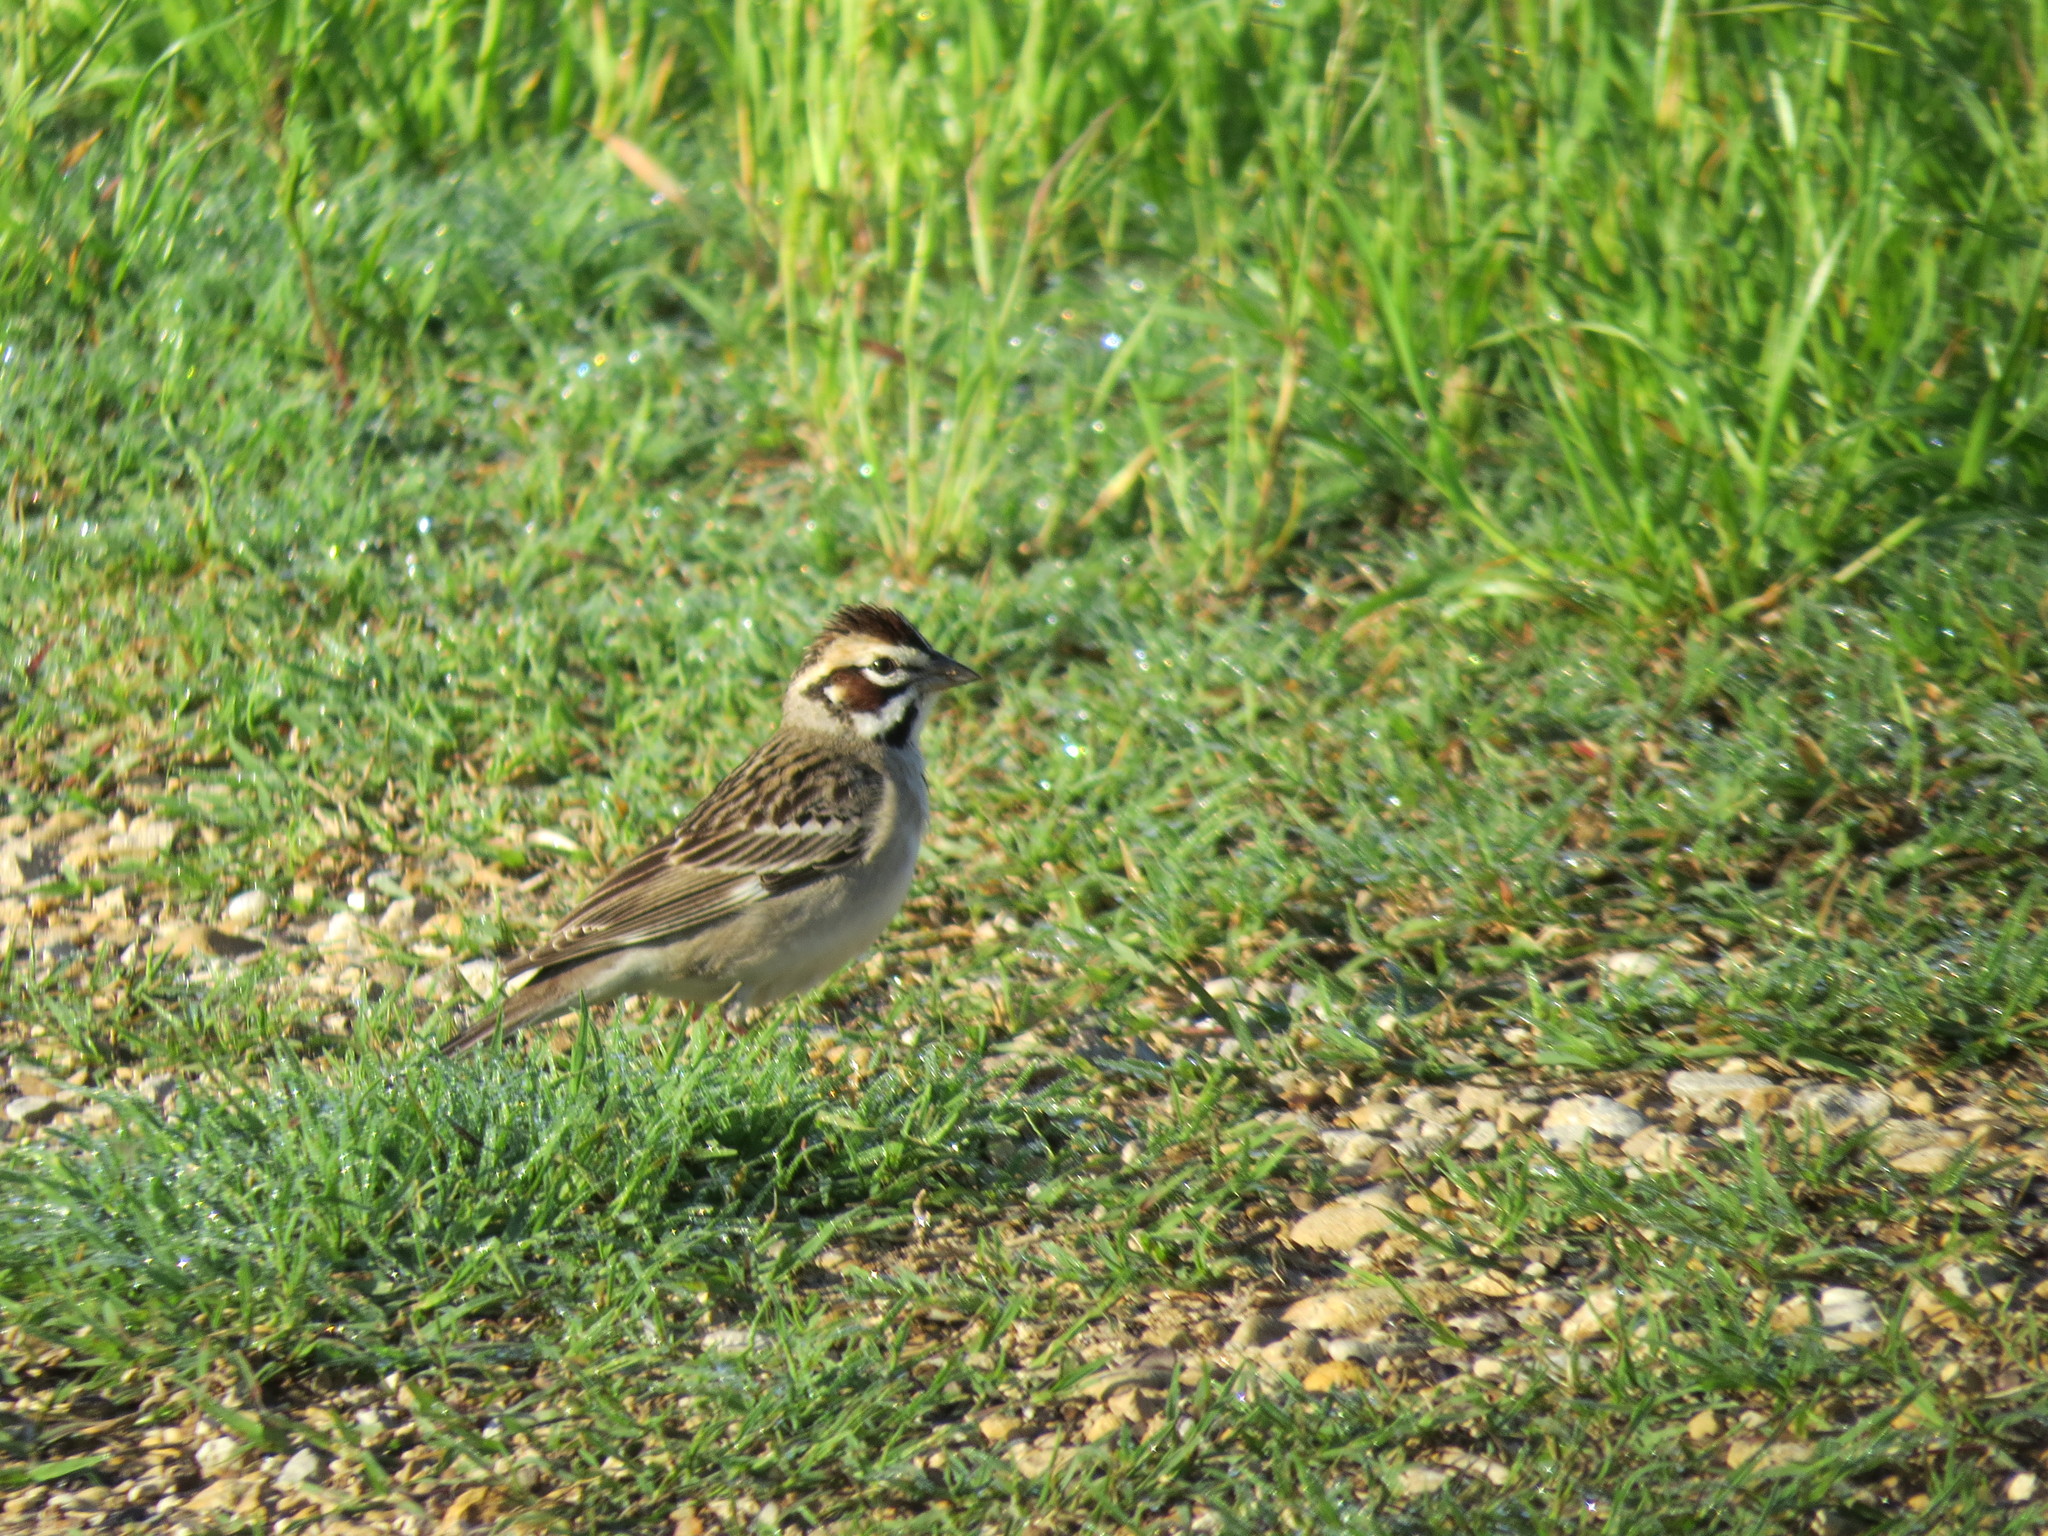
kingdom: Animalia
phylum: Chordata
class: Aves
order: Passeriformes
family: Passerellidae
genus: Chondestes
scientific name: Chondestes grammacus
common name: Lark sparrow
